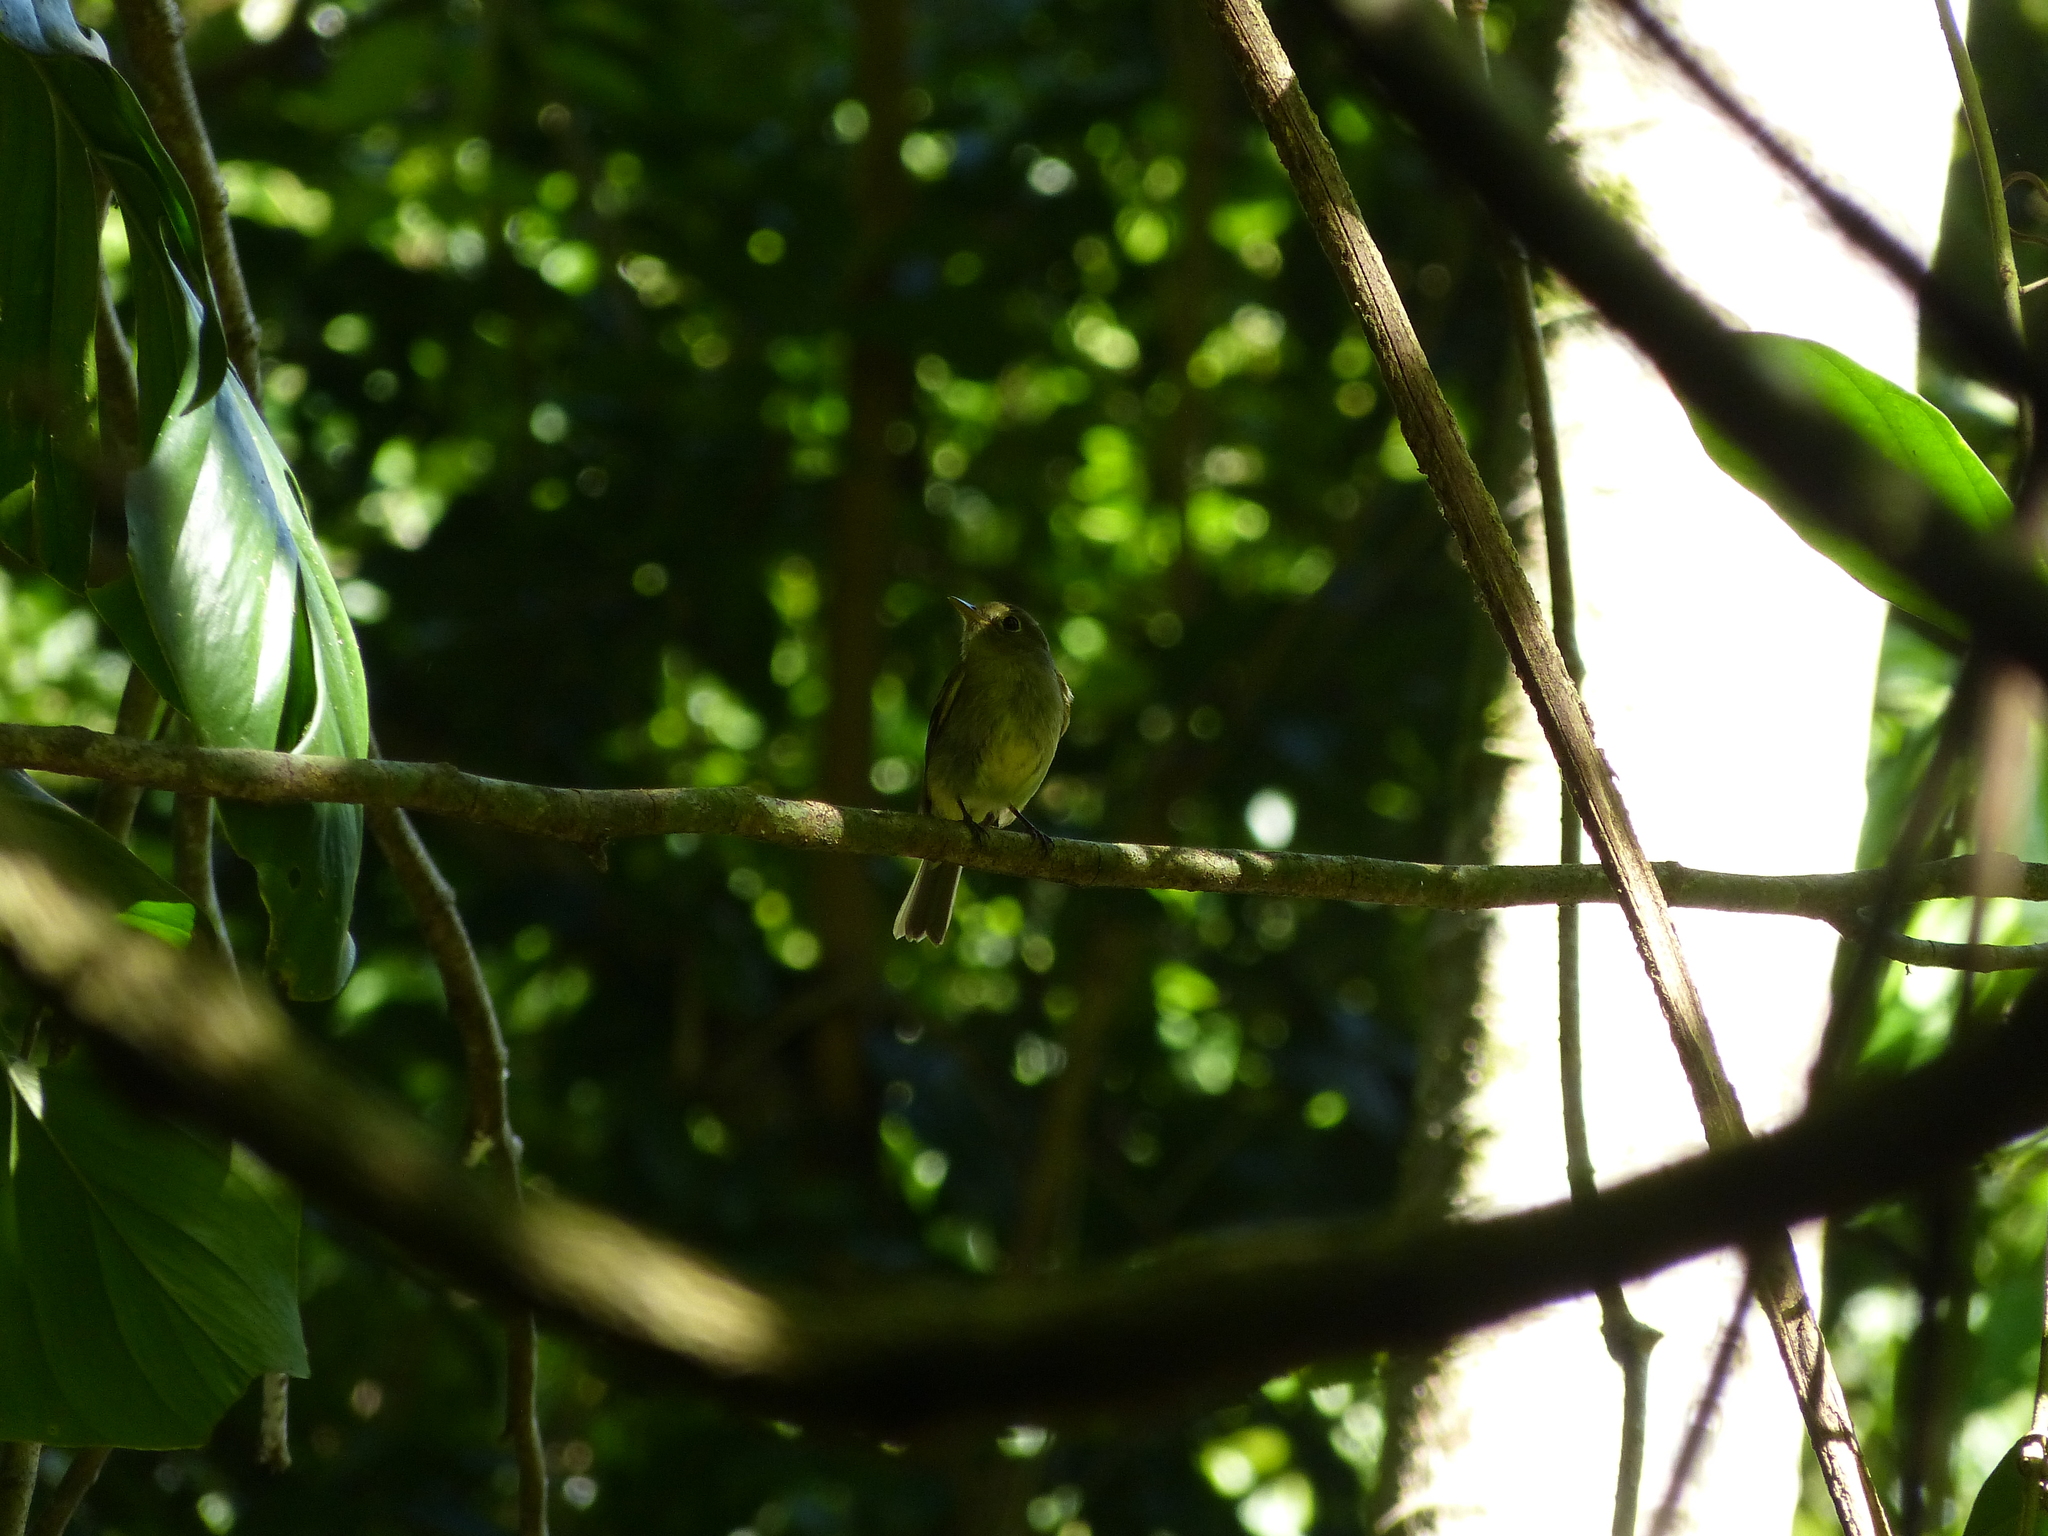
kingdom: Animalia
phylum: Chordata
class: Aves
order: Passeriformes
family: Tyrannidae
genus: Empidonax
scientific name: Empidonax flaviventris
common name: Yellow-bellied flycatcher
